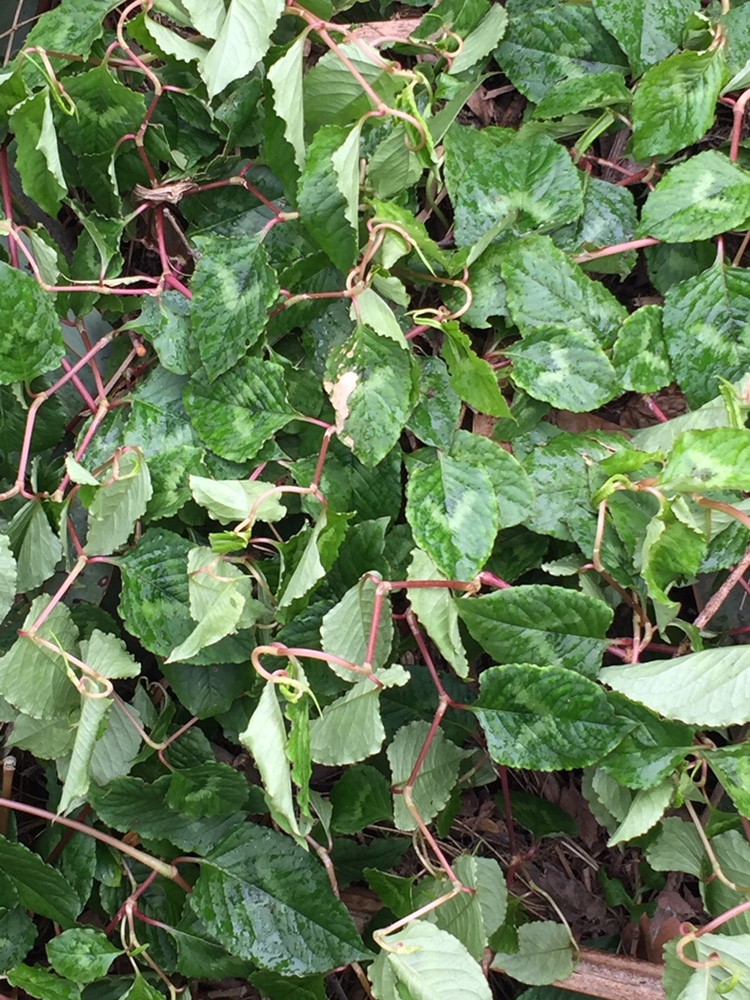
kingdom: Plantae
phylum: Tracheophyta
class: Magnoliopsida
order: Caryophyllales
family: Polygonaceae
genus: Persicaria
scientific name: Persicaria chinensis
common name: Chinese knotweed
